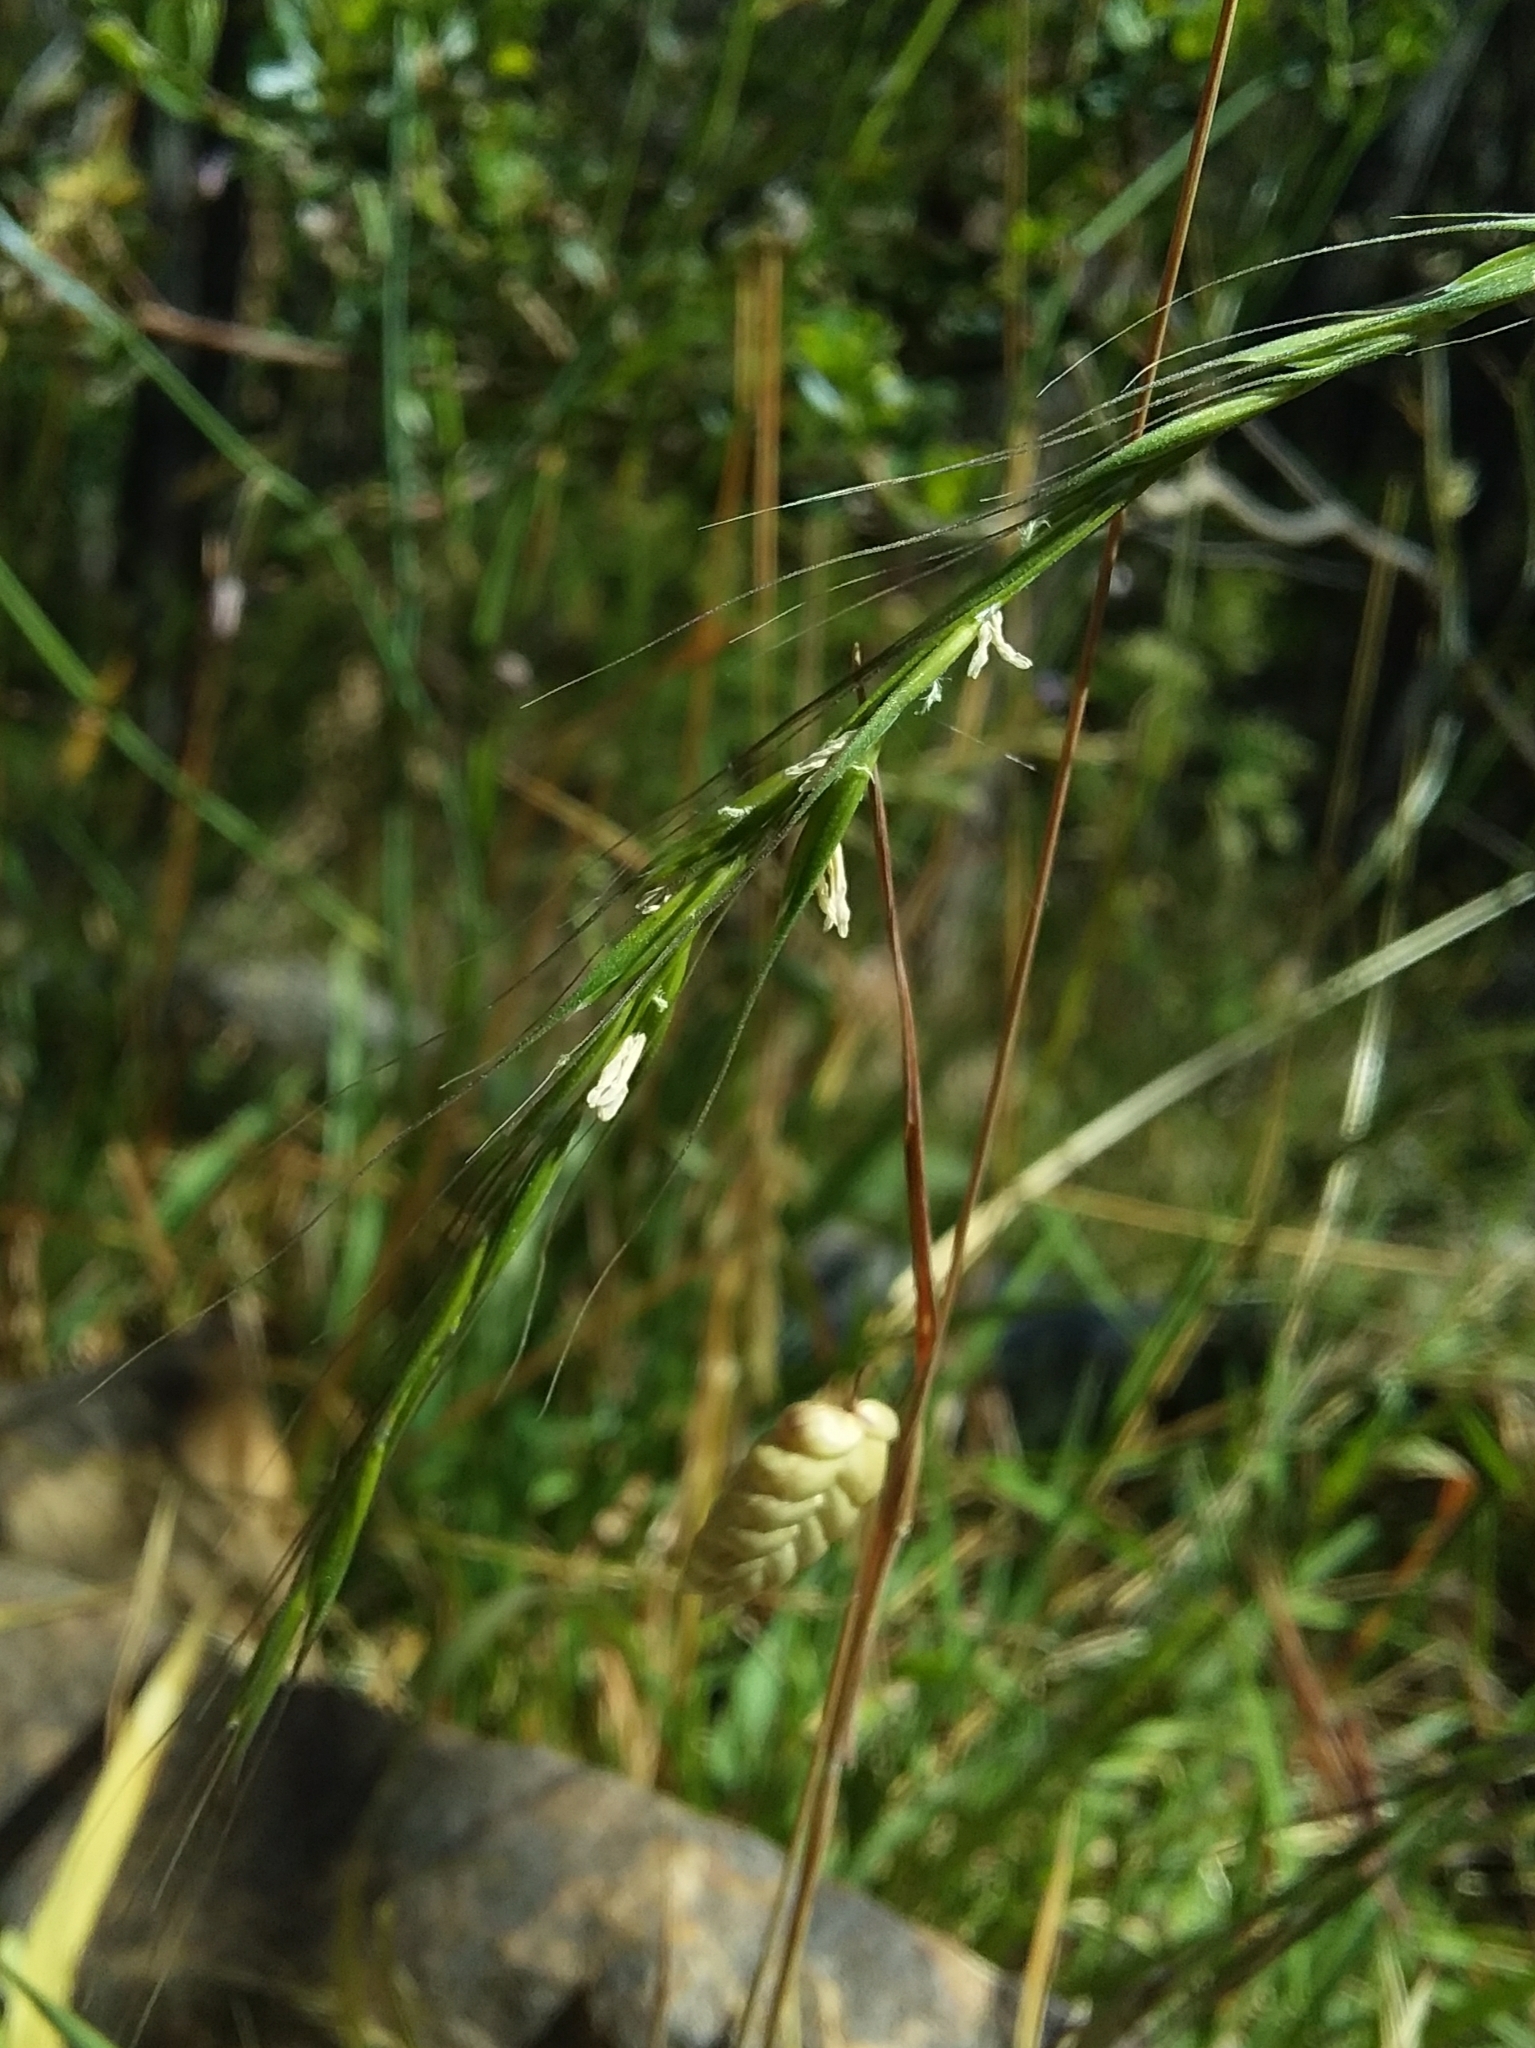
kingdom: Plantae
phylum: Tracheophyta
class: Liliopsida
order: Poales
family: Poaceae
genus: Microlaena
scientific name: Microlaena stipoides
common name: Meadow ricegrass
